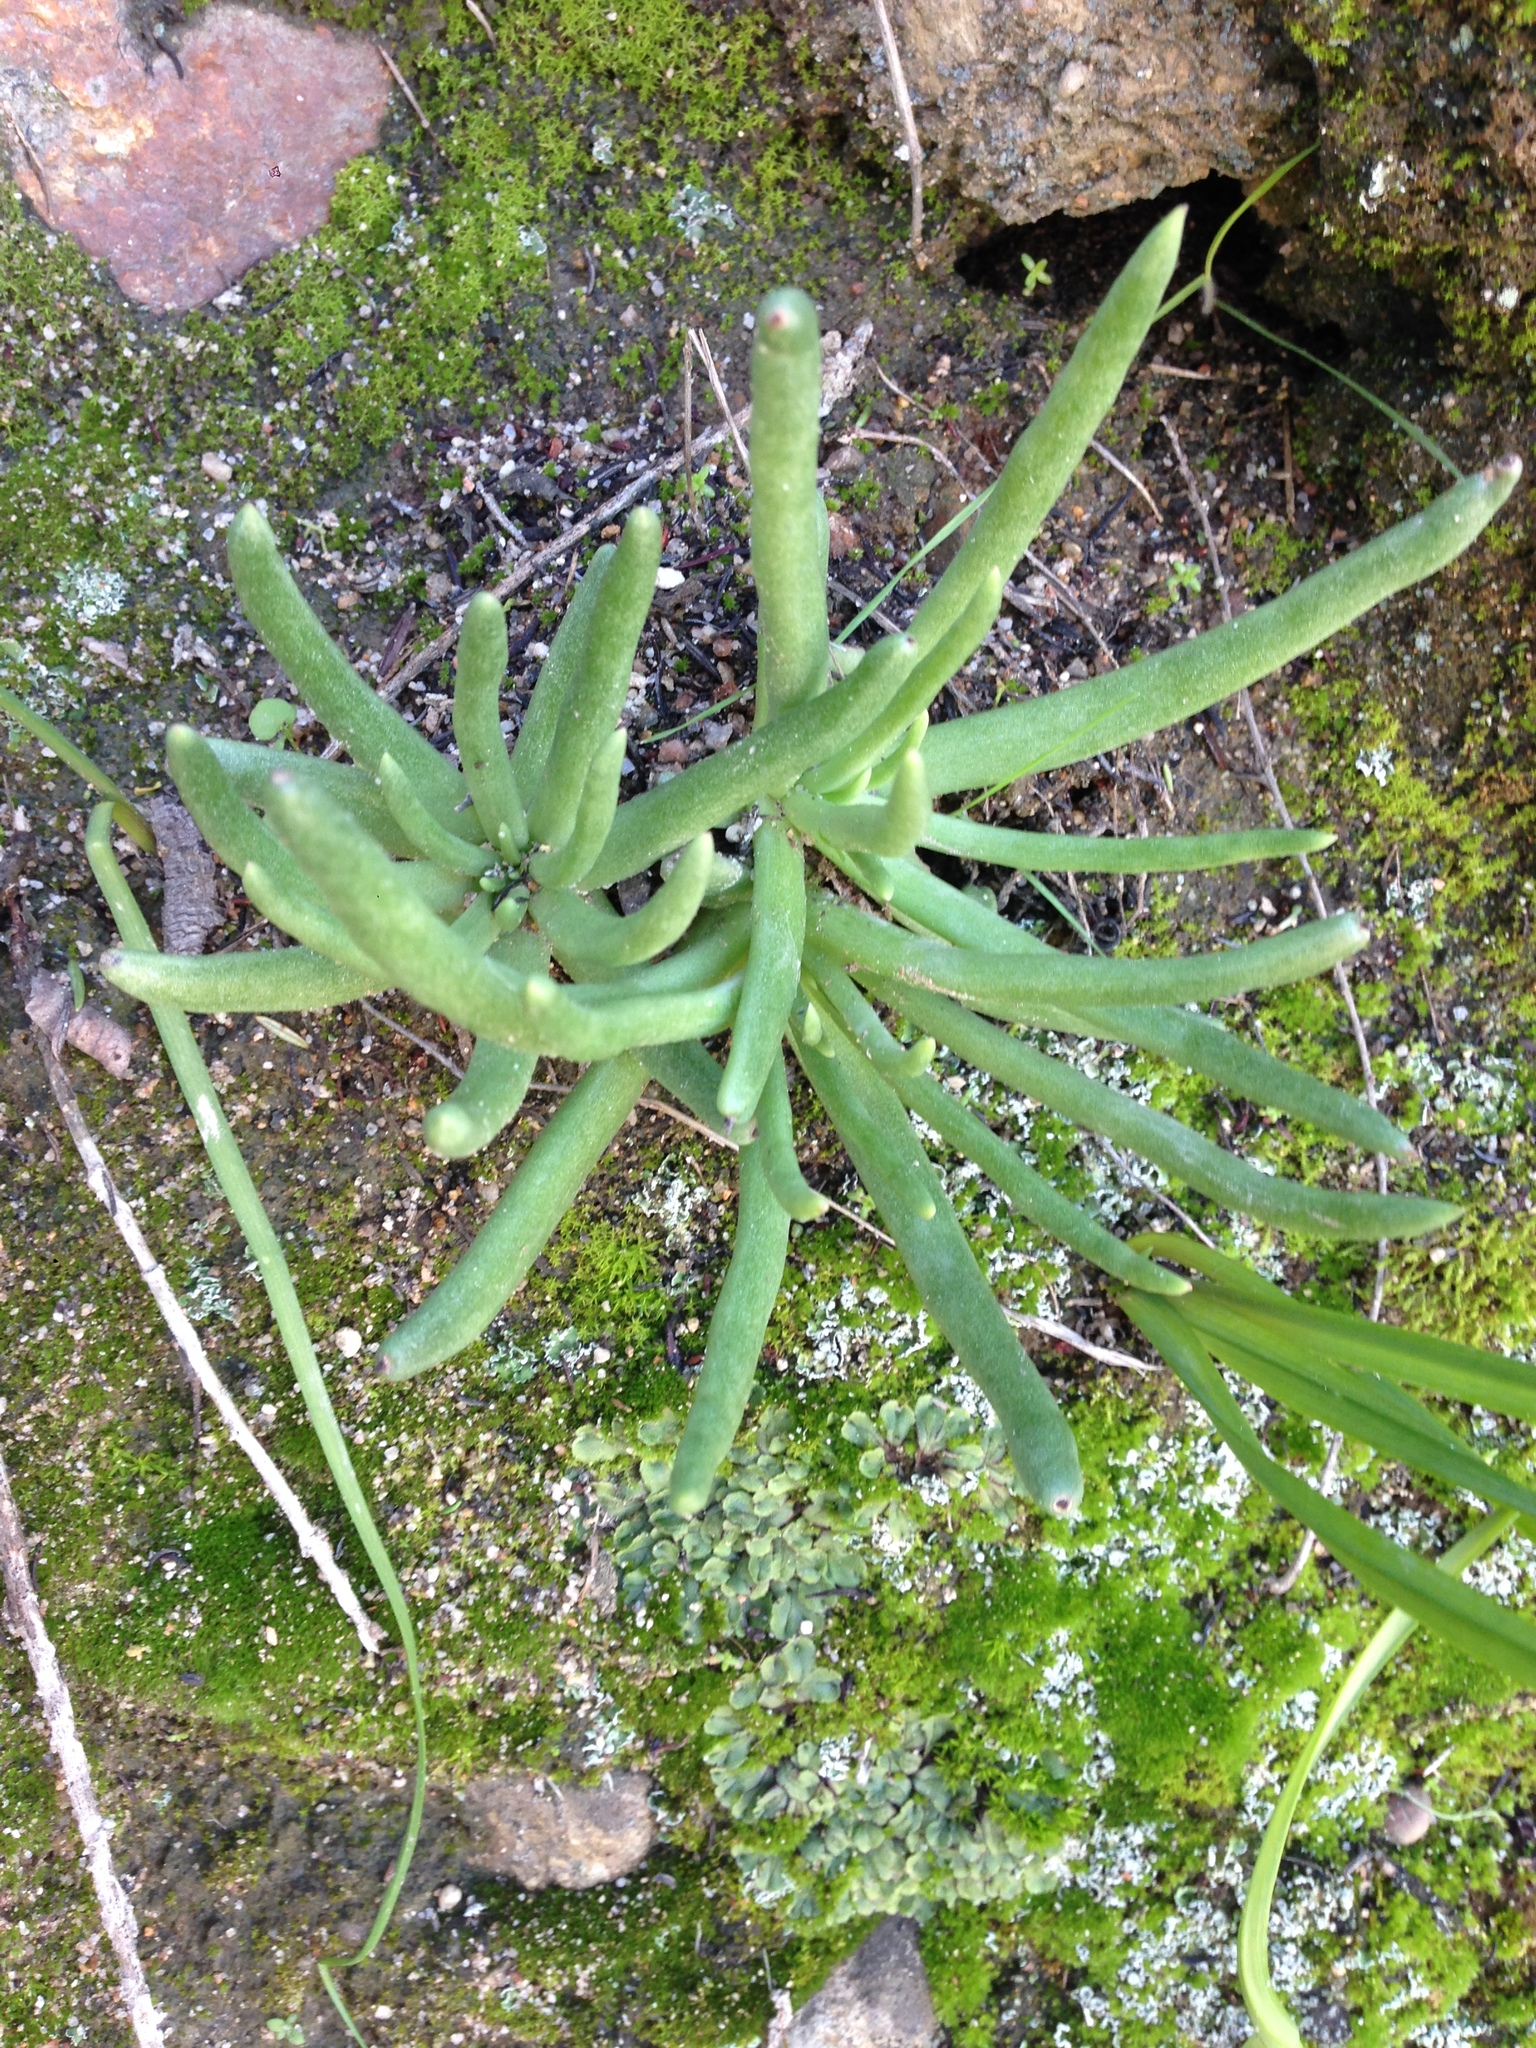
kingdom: Plantae
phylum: Tracheophyta
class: Magnoliopsida
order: Saxifragales
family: Crassulaceae
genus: Dudleya
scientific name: Dudleya edulis
